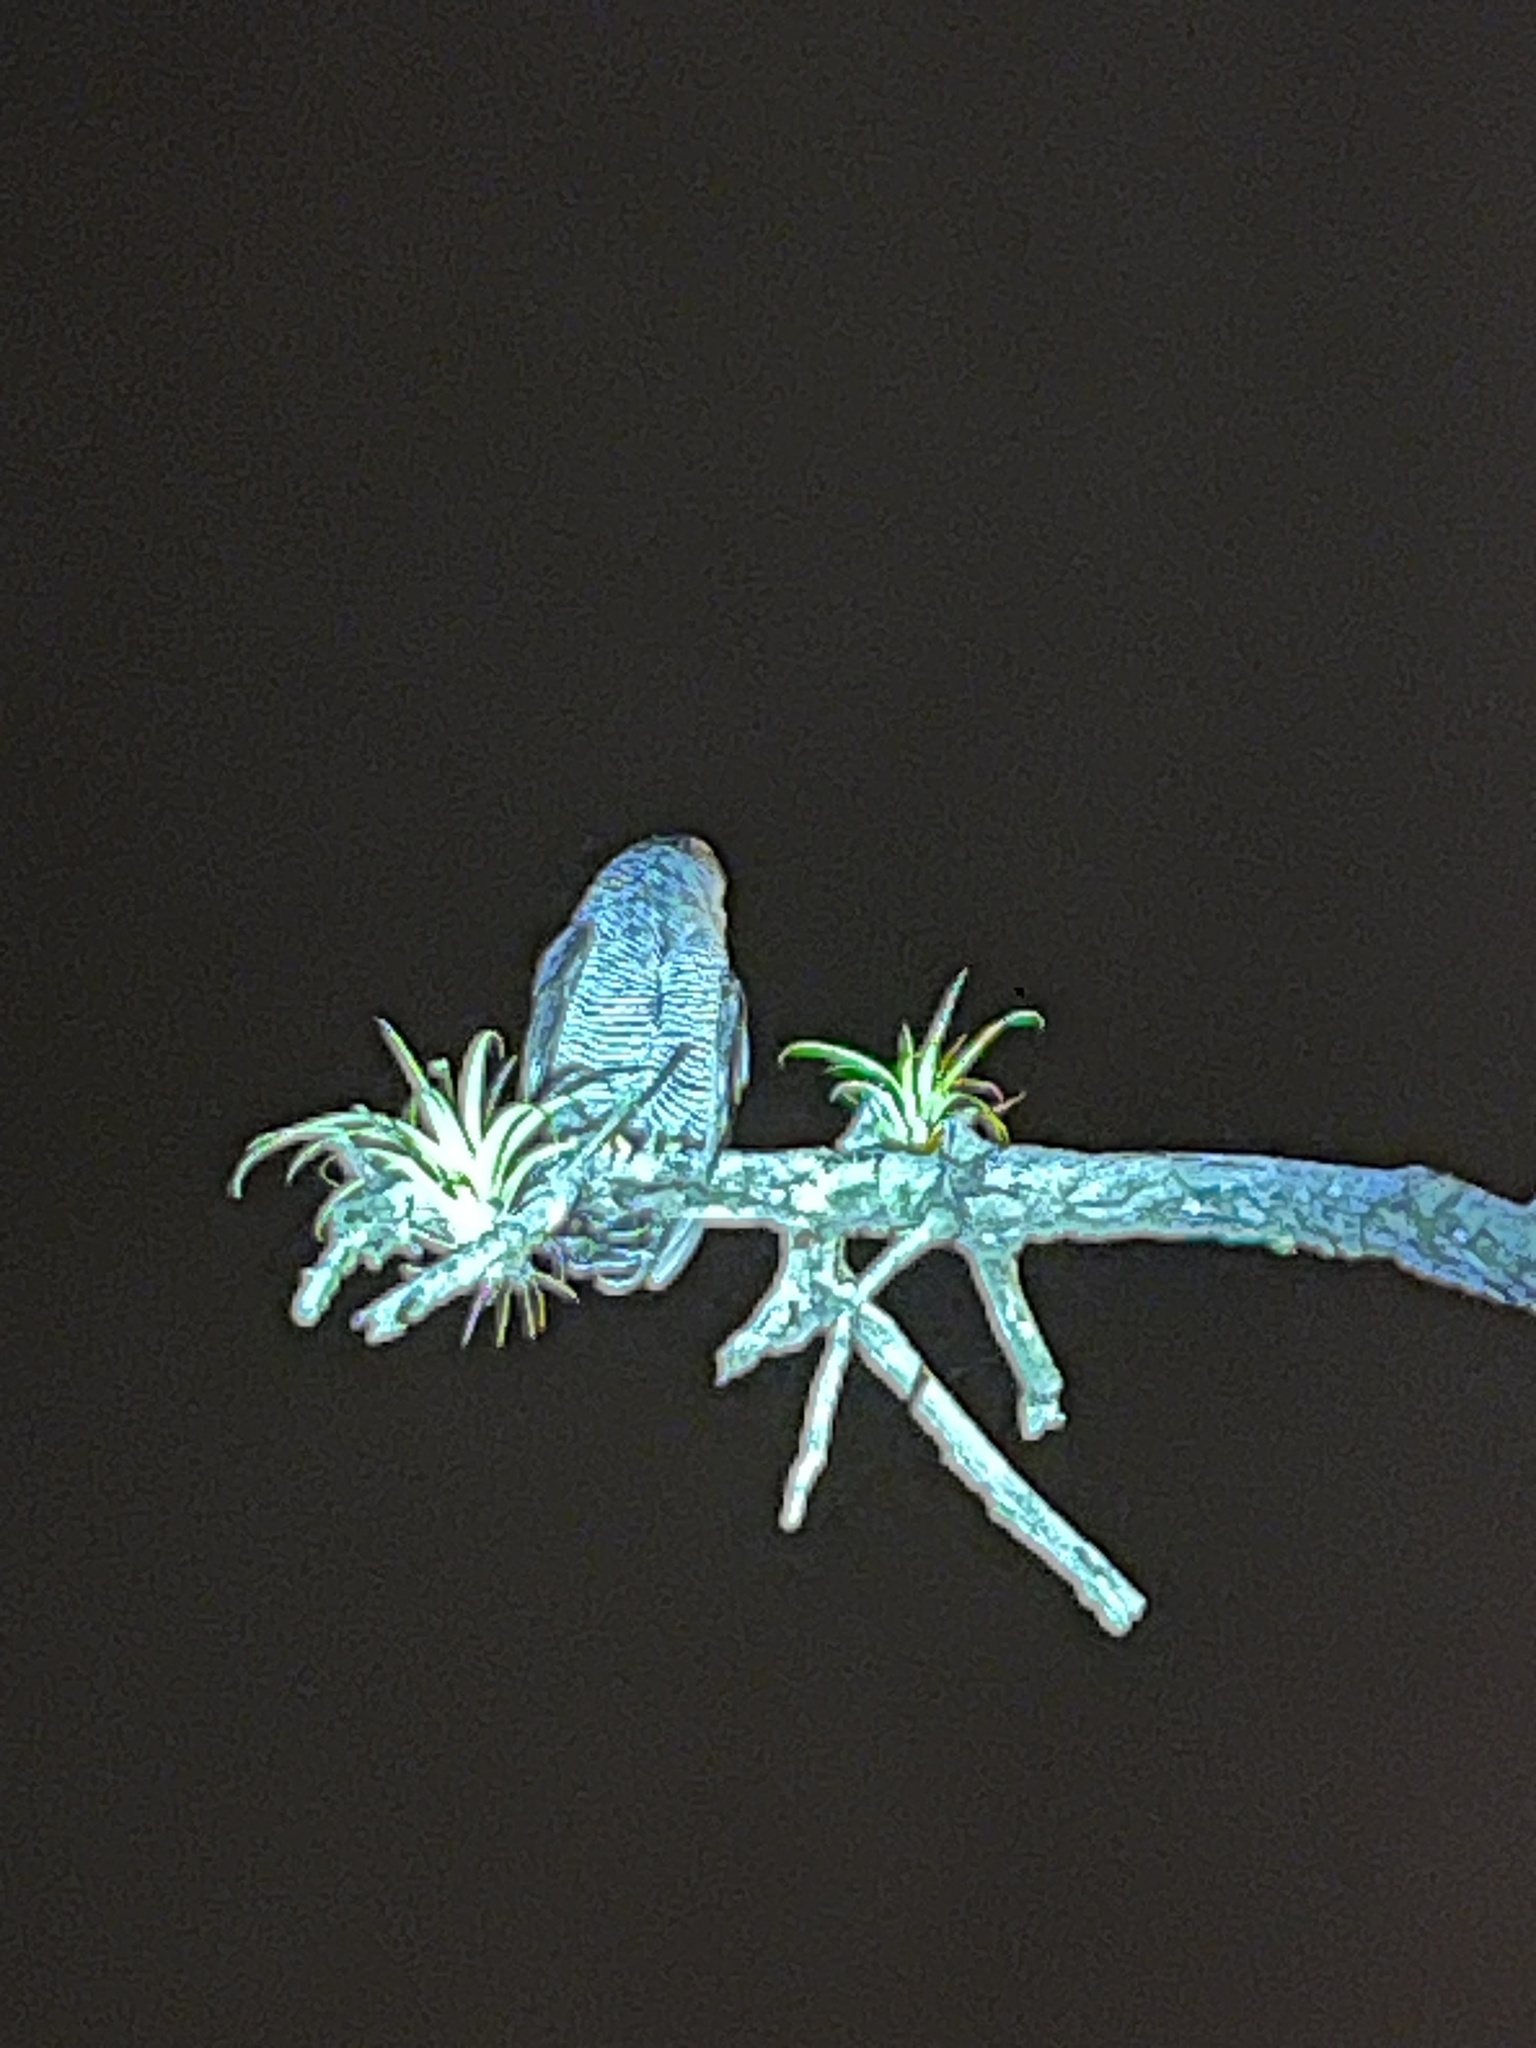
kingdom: Animalia
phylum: Chordata
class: Aves
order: Strigiformes
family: Strigidae
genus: Strix
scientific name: Strix nigrolineata
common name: Black-and-white owl
